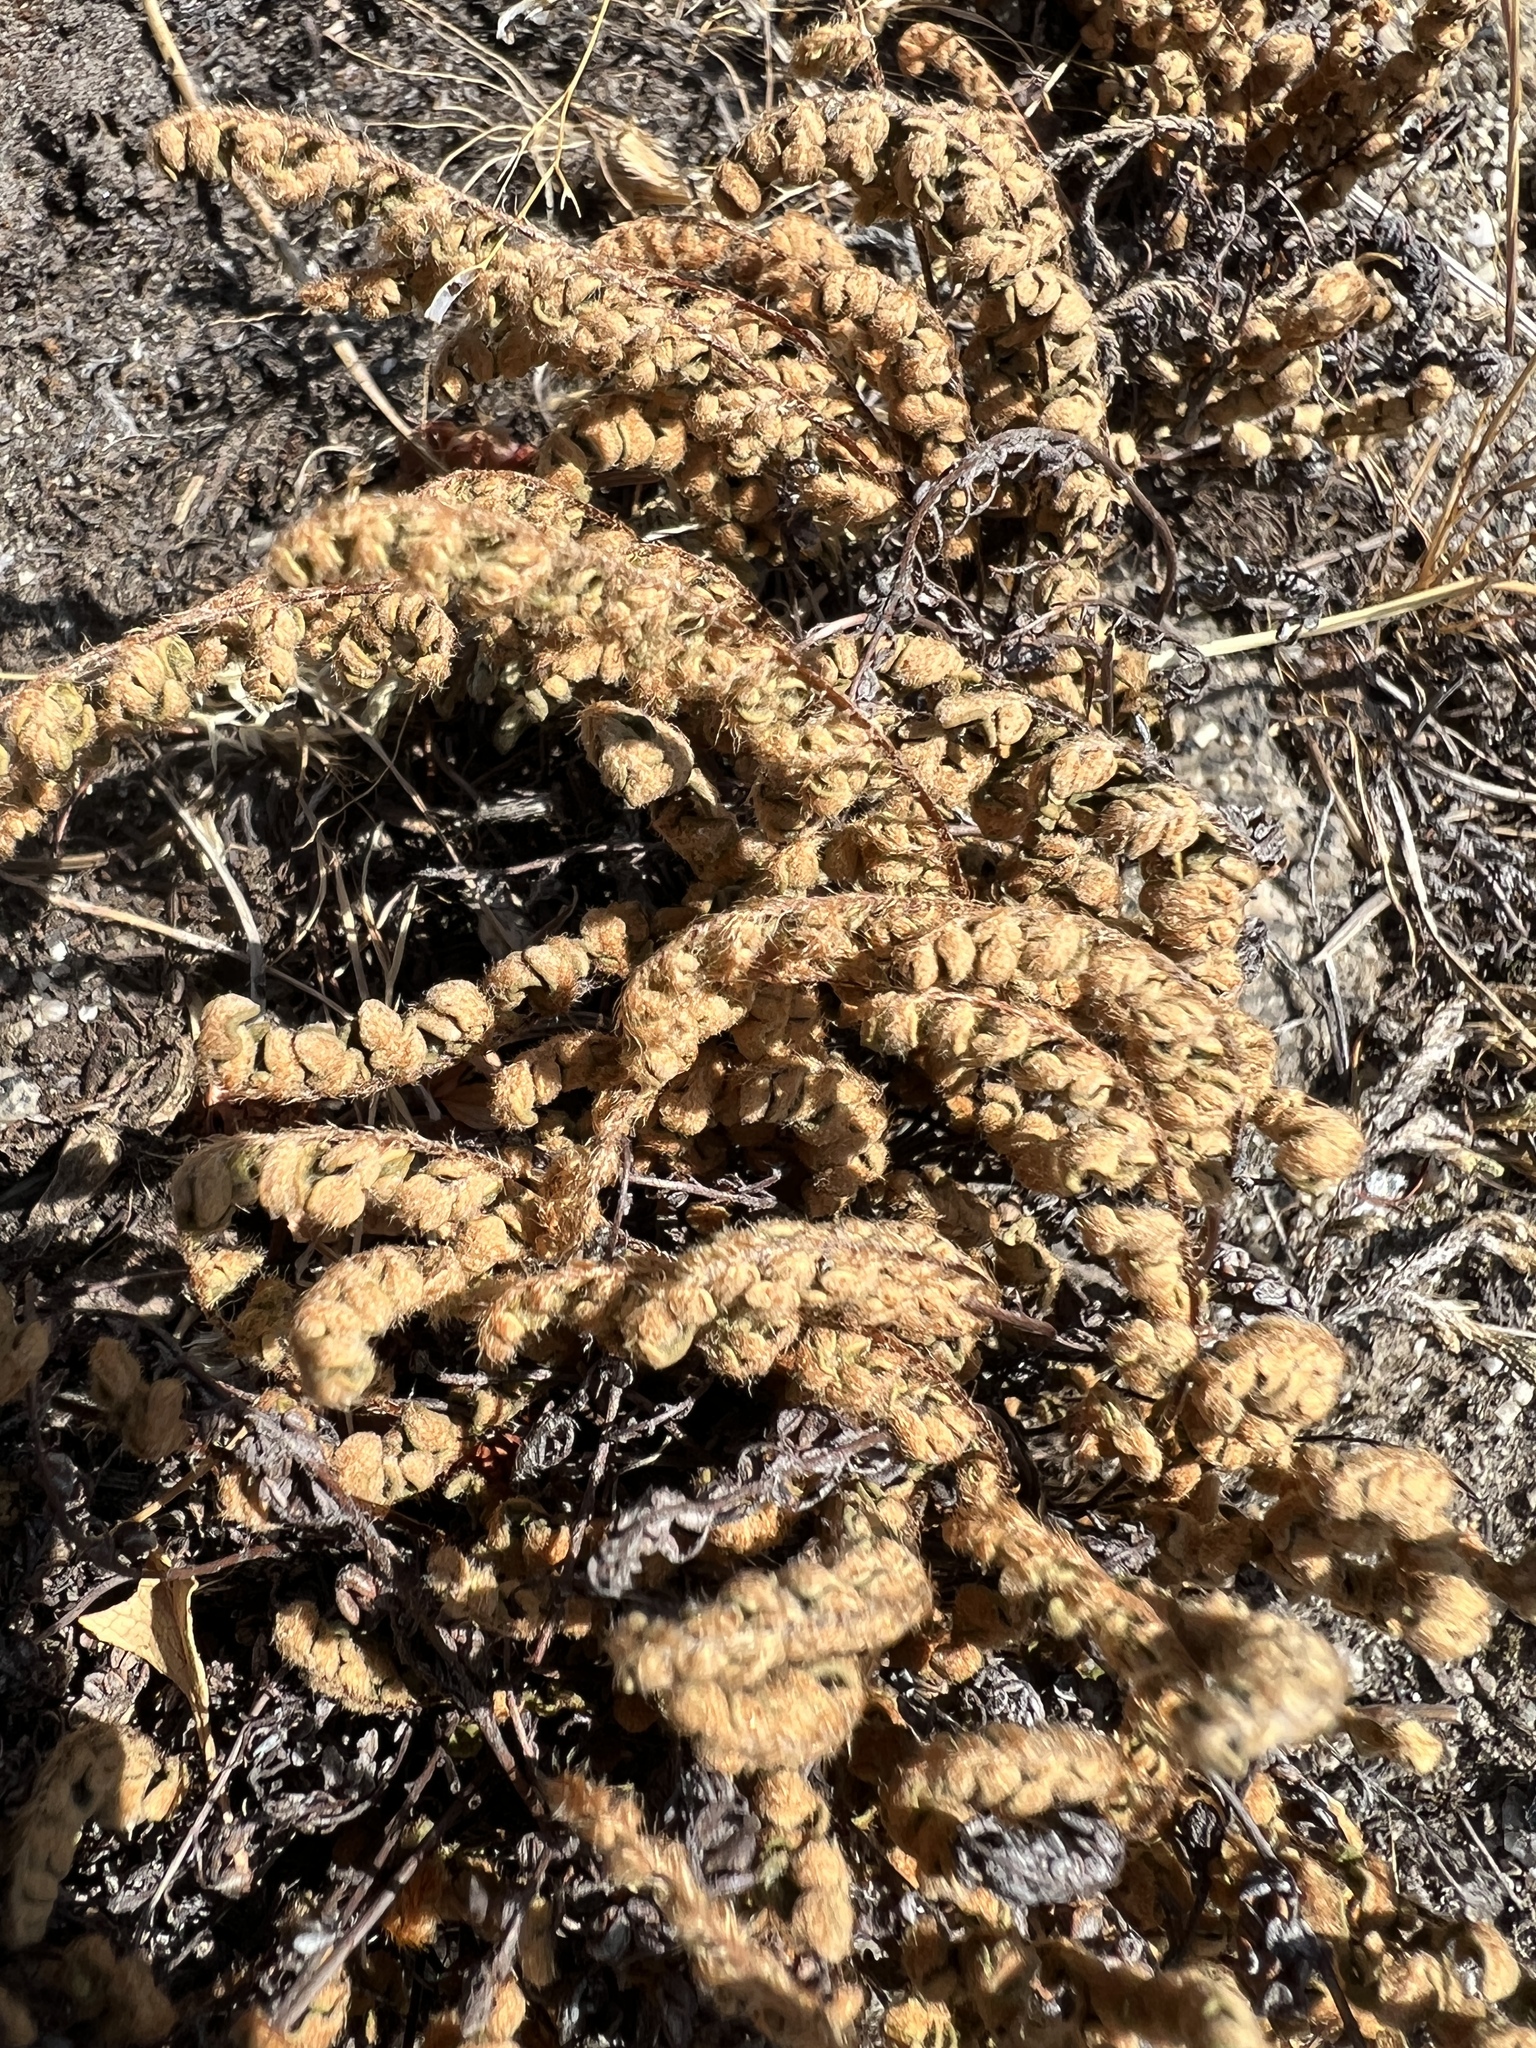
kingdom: Plantae
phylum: Tracheophyta
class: Polypodiopsida
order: Polypodiales
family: Pteridaceae
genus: Myriopteris
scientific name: Myriopteris gracillima
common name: Lace fern
